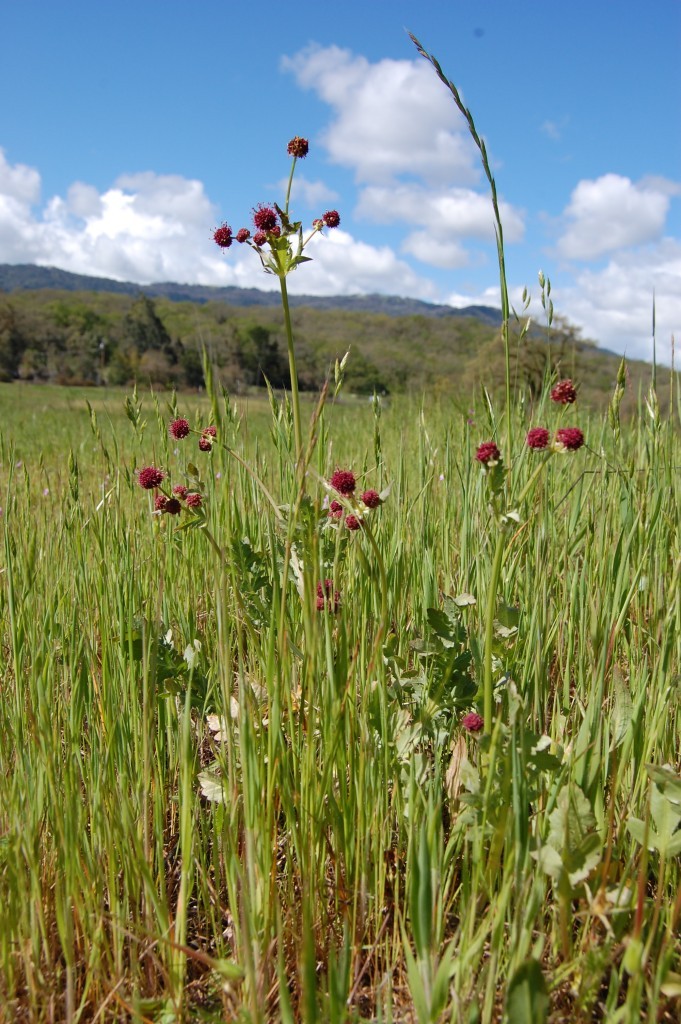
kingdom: Plantae
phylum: Tracheophyta
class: Magnoliopsida
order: Apiales
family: Apiaceae
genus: Sanicula
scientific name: Sanicula bipinnatifida
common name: Shoe-buttons
